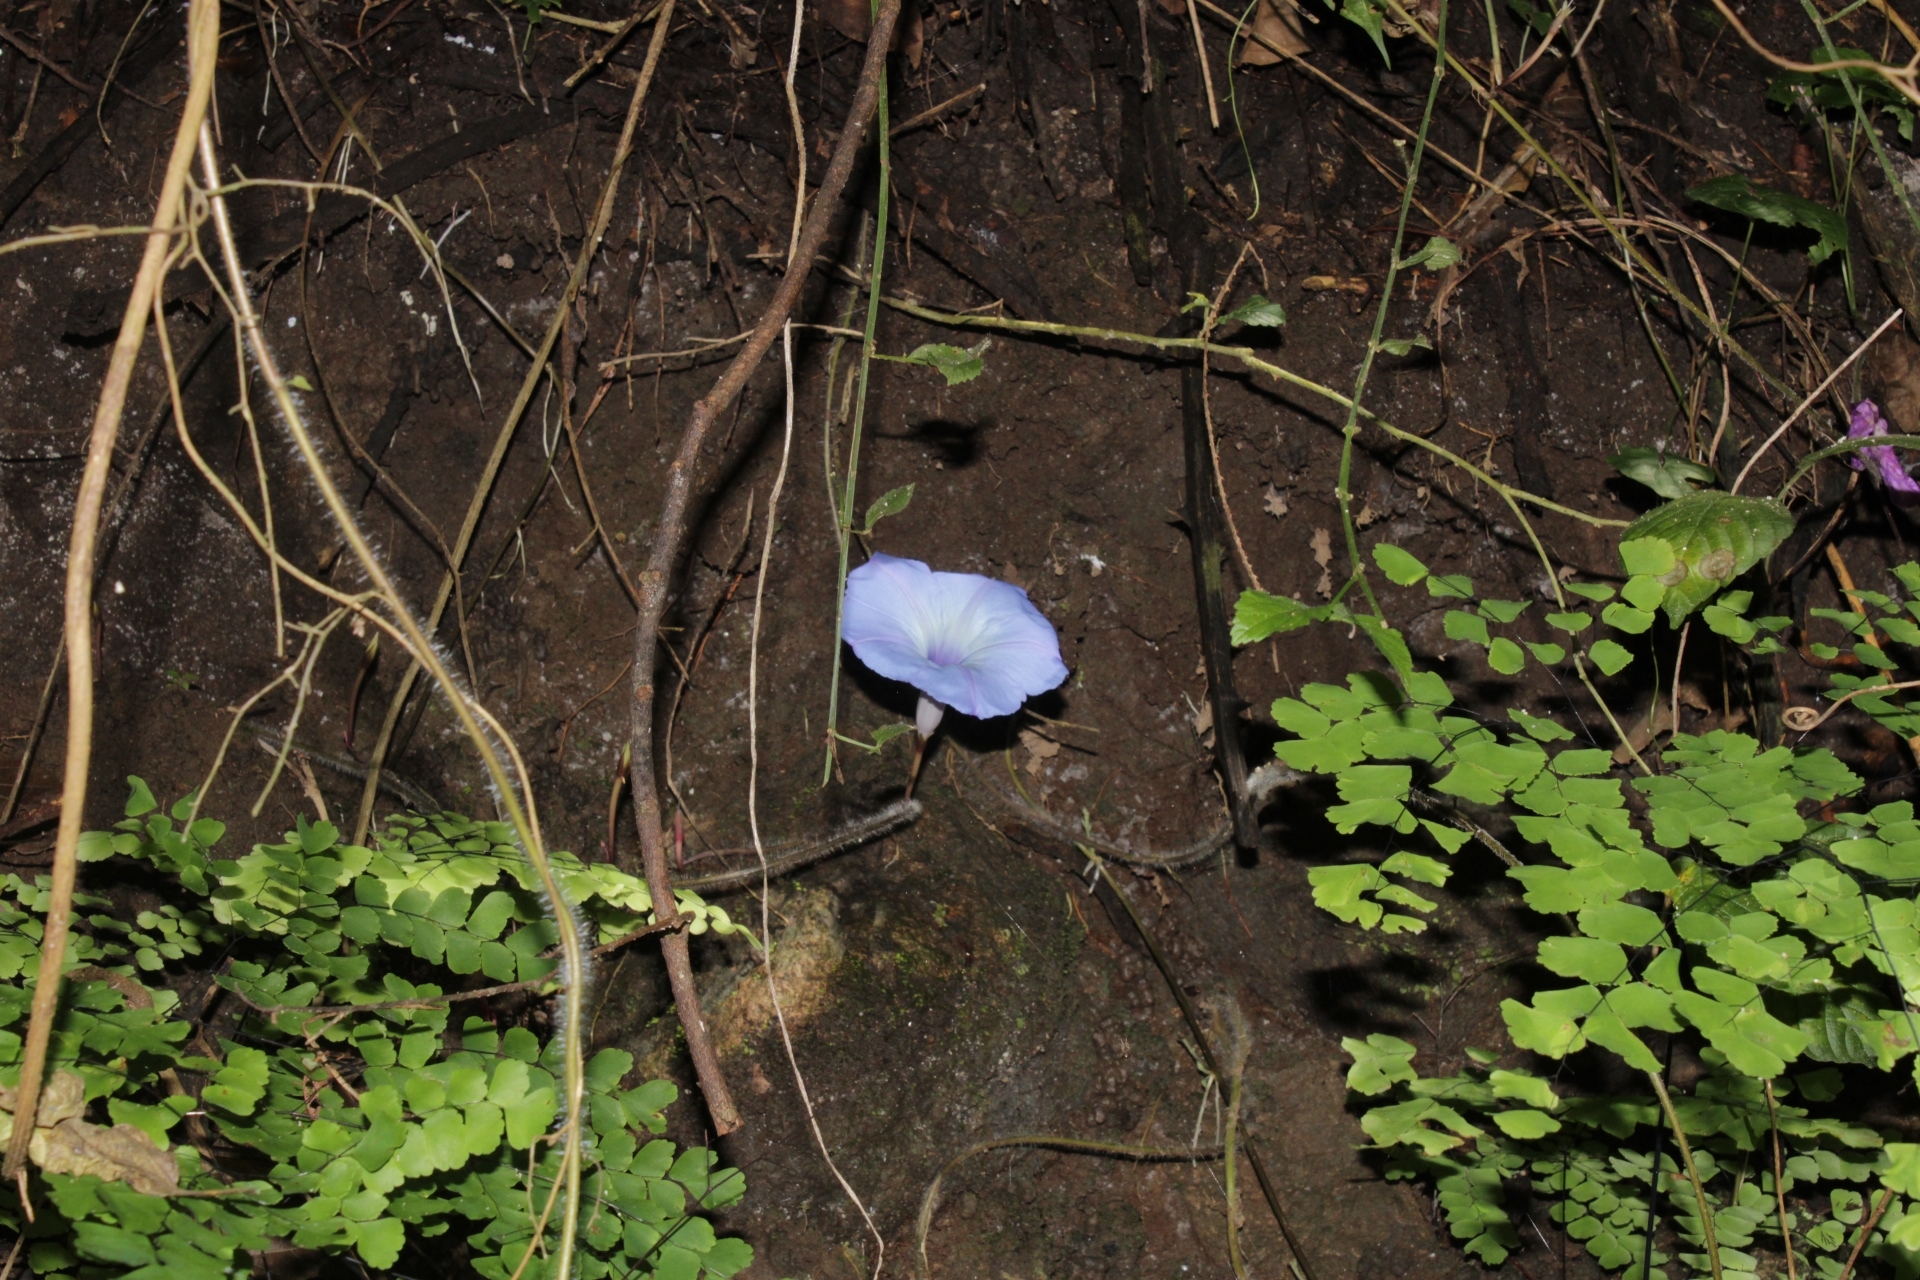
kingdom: Plantae
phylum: Tracheophyta
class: Magnoliopsida
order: Solanales
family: Convolvulaceae
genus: Ipomoea
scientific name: Ipomoea regnellii
